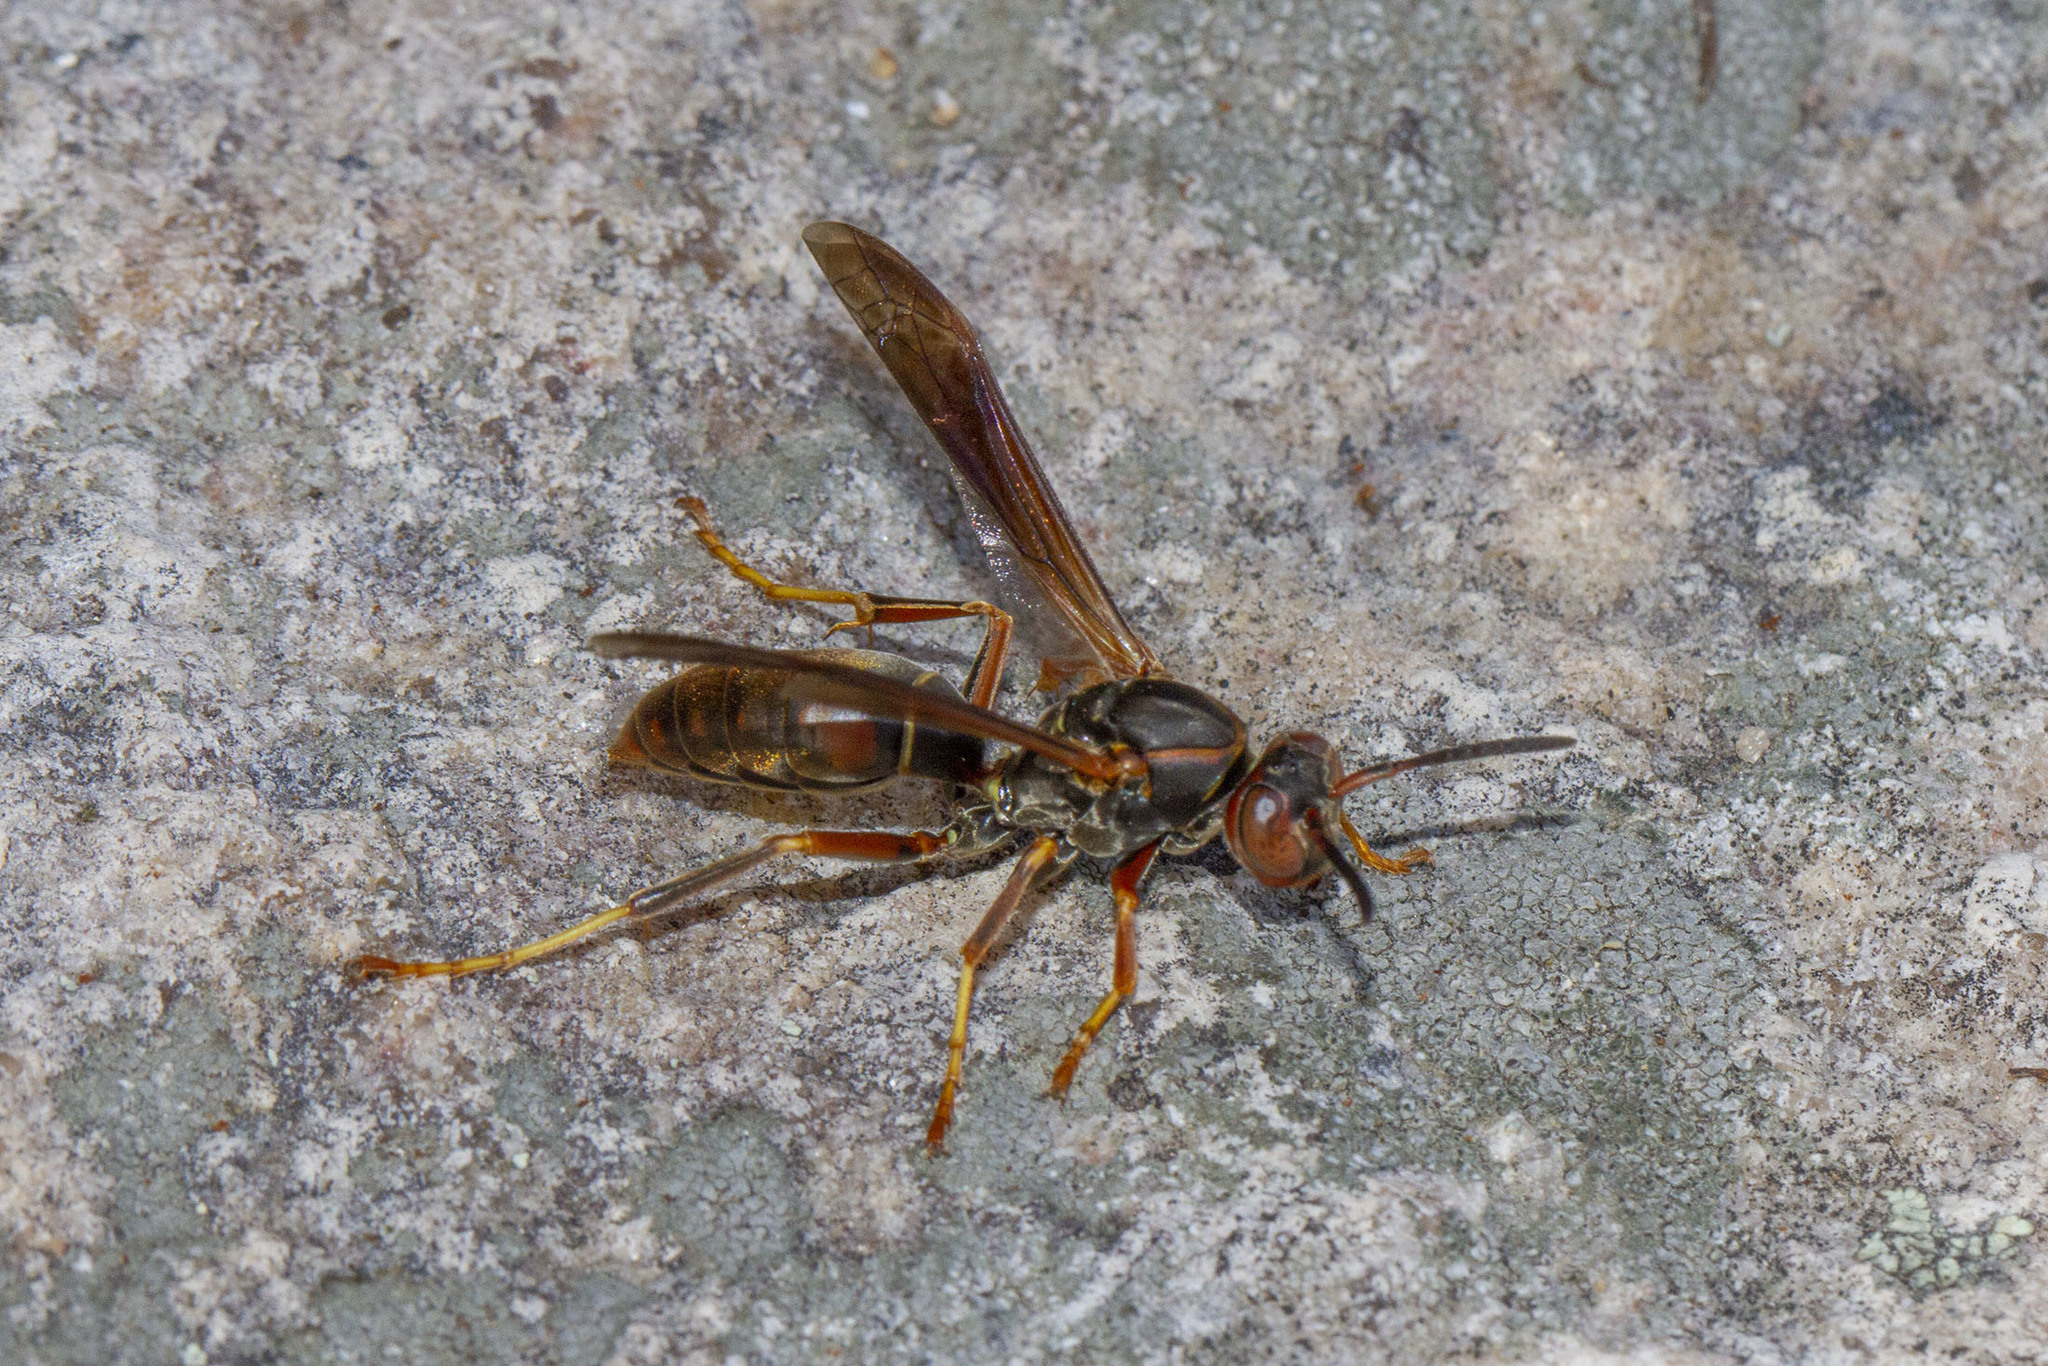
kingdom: Animalia
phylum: Arthropoda
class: Insecta
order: Hymenoptera
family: Eumenidae
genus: Polistes
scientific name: Polistes fuscatus
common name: Dark paper wasp
